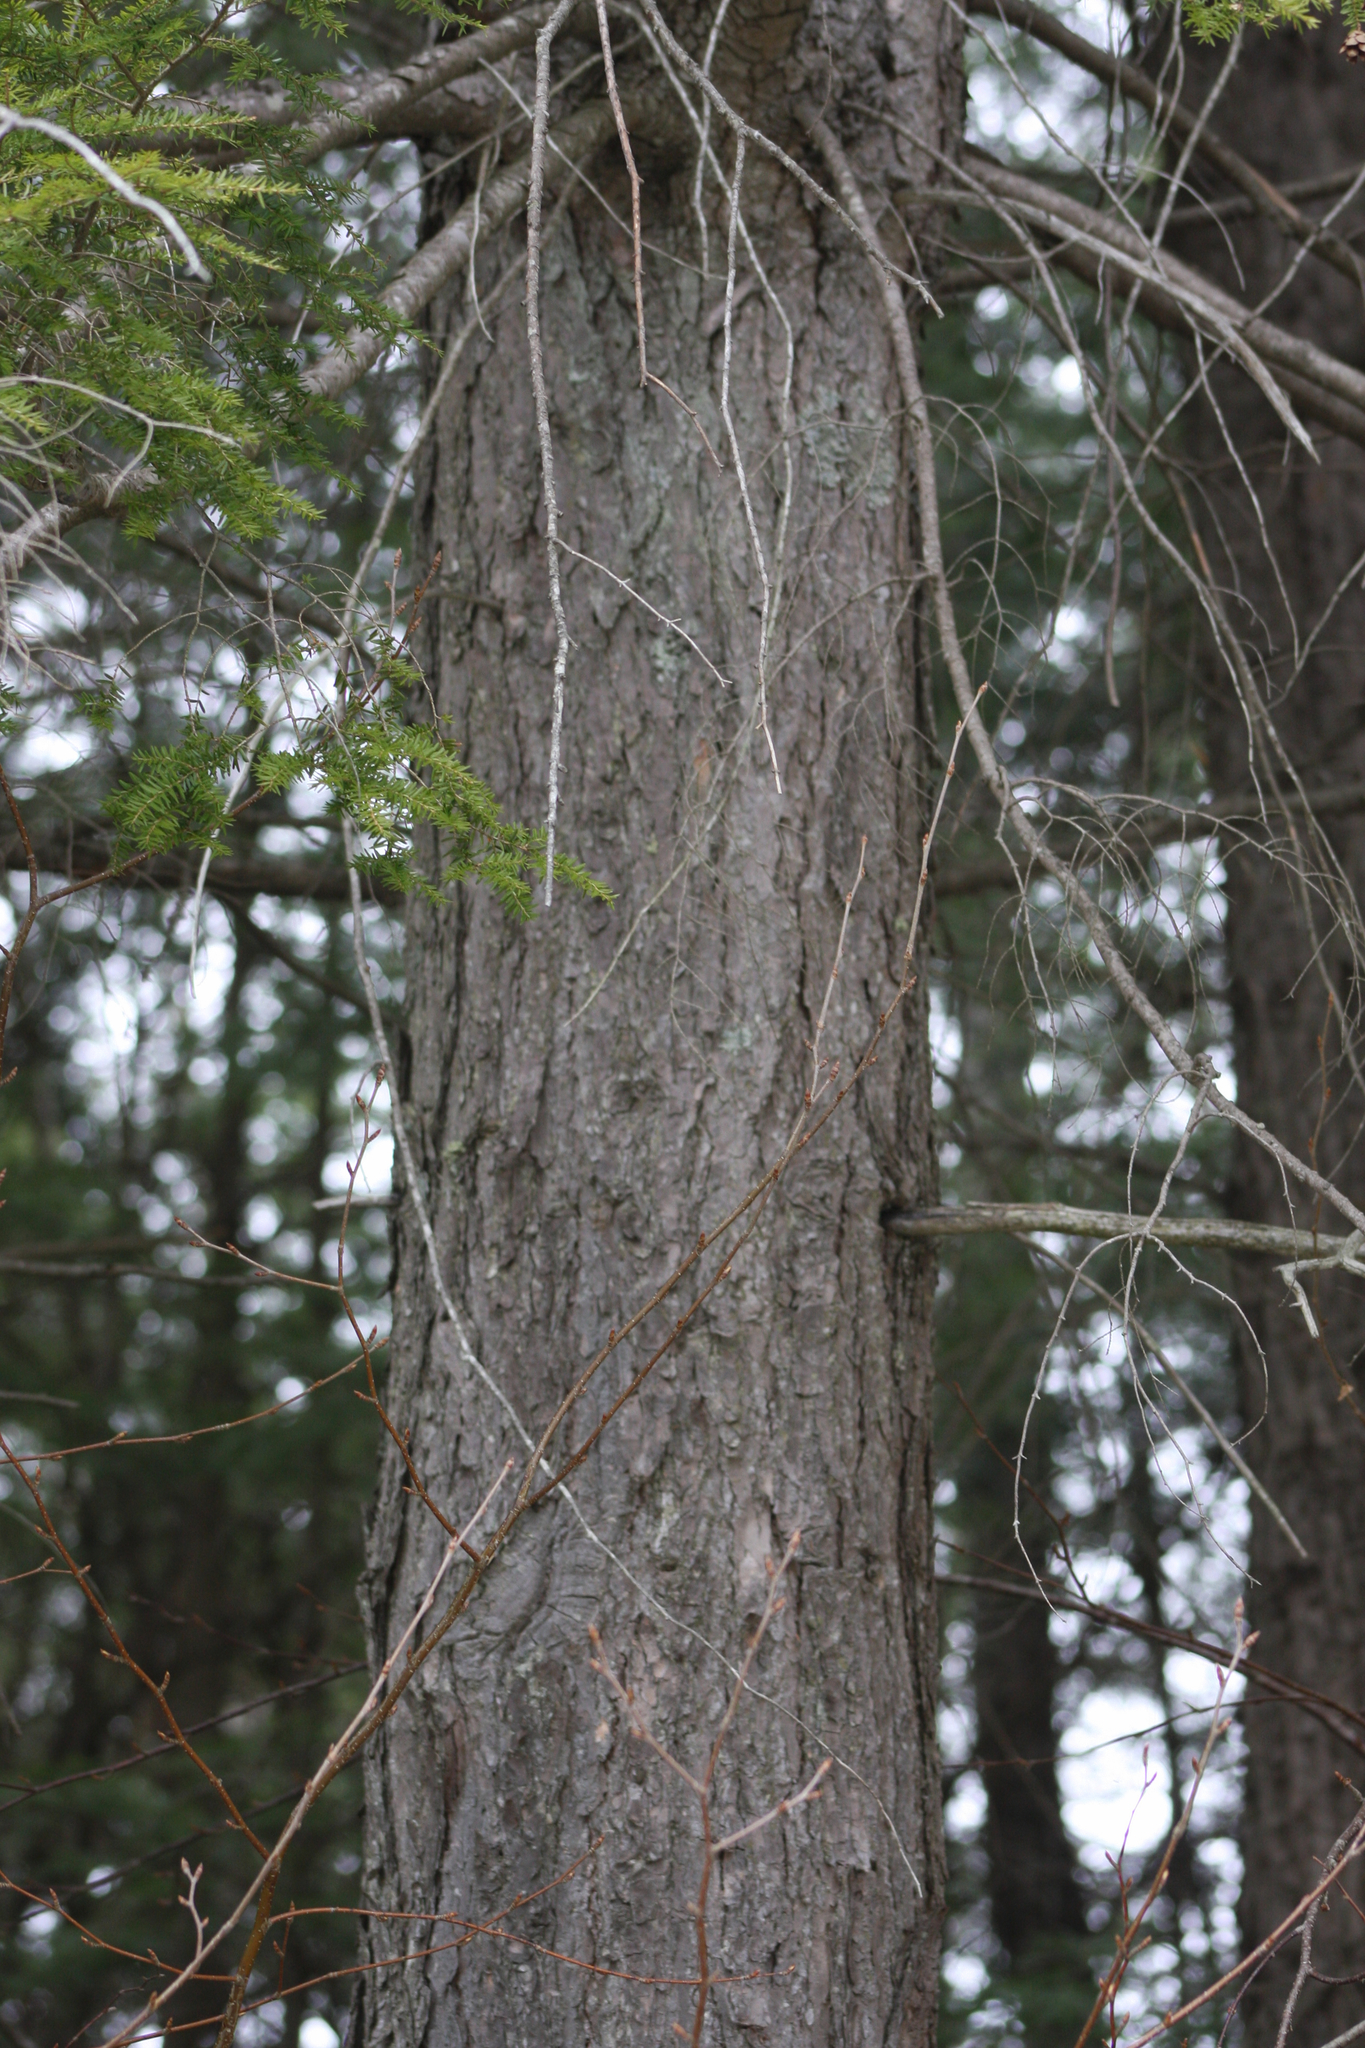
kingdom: Plantae
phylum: Tracheophyta
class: Pinopsida
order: Pinales
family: Pinaceae
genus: Tsuga
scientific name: Tsuga canadensis
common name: Eastern hemlock
